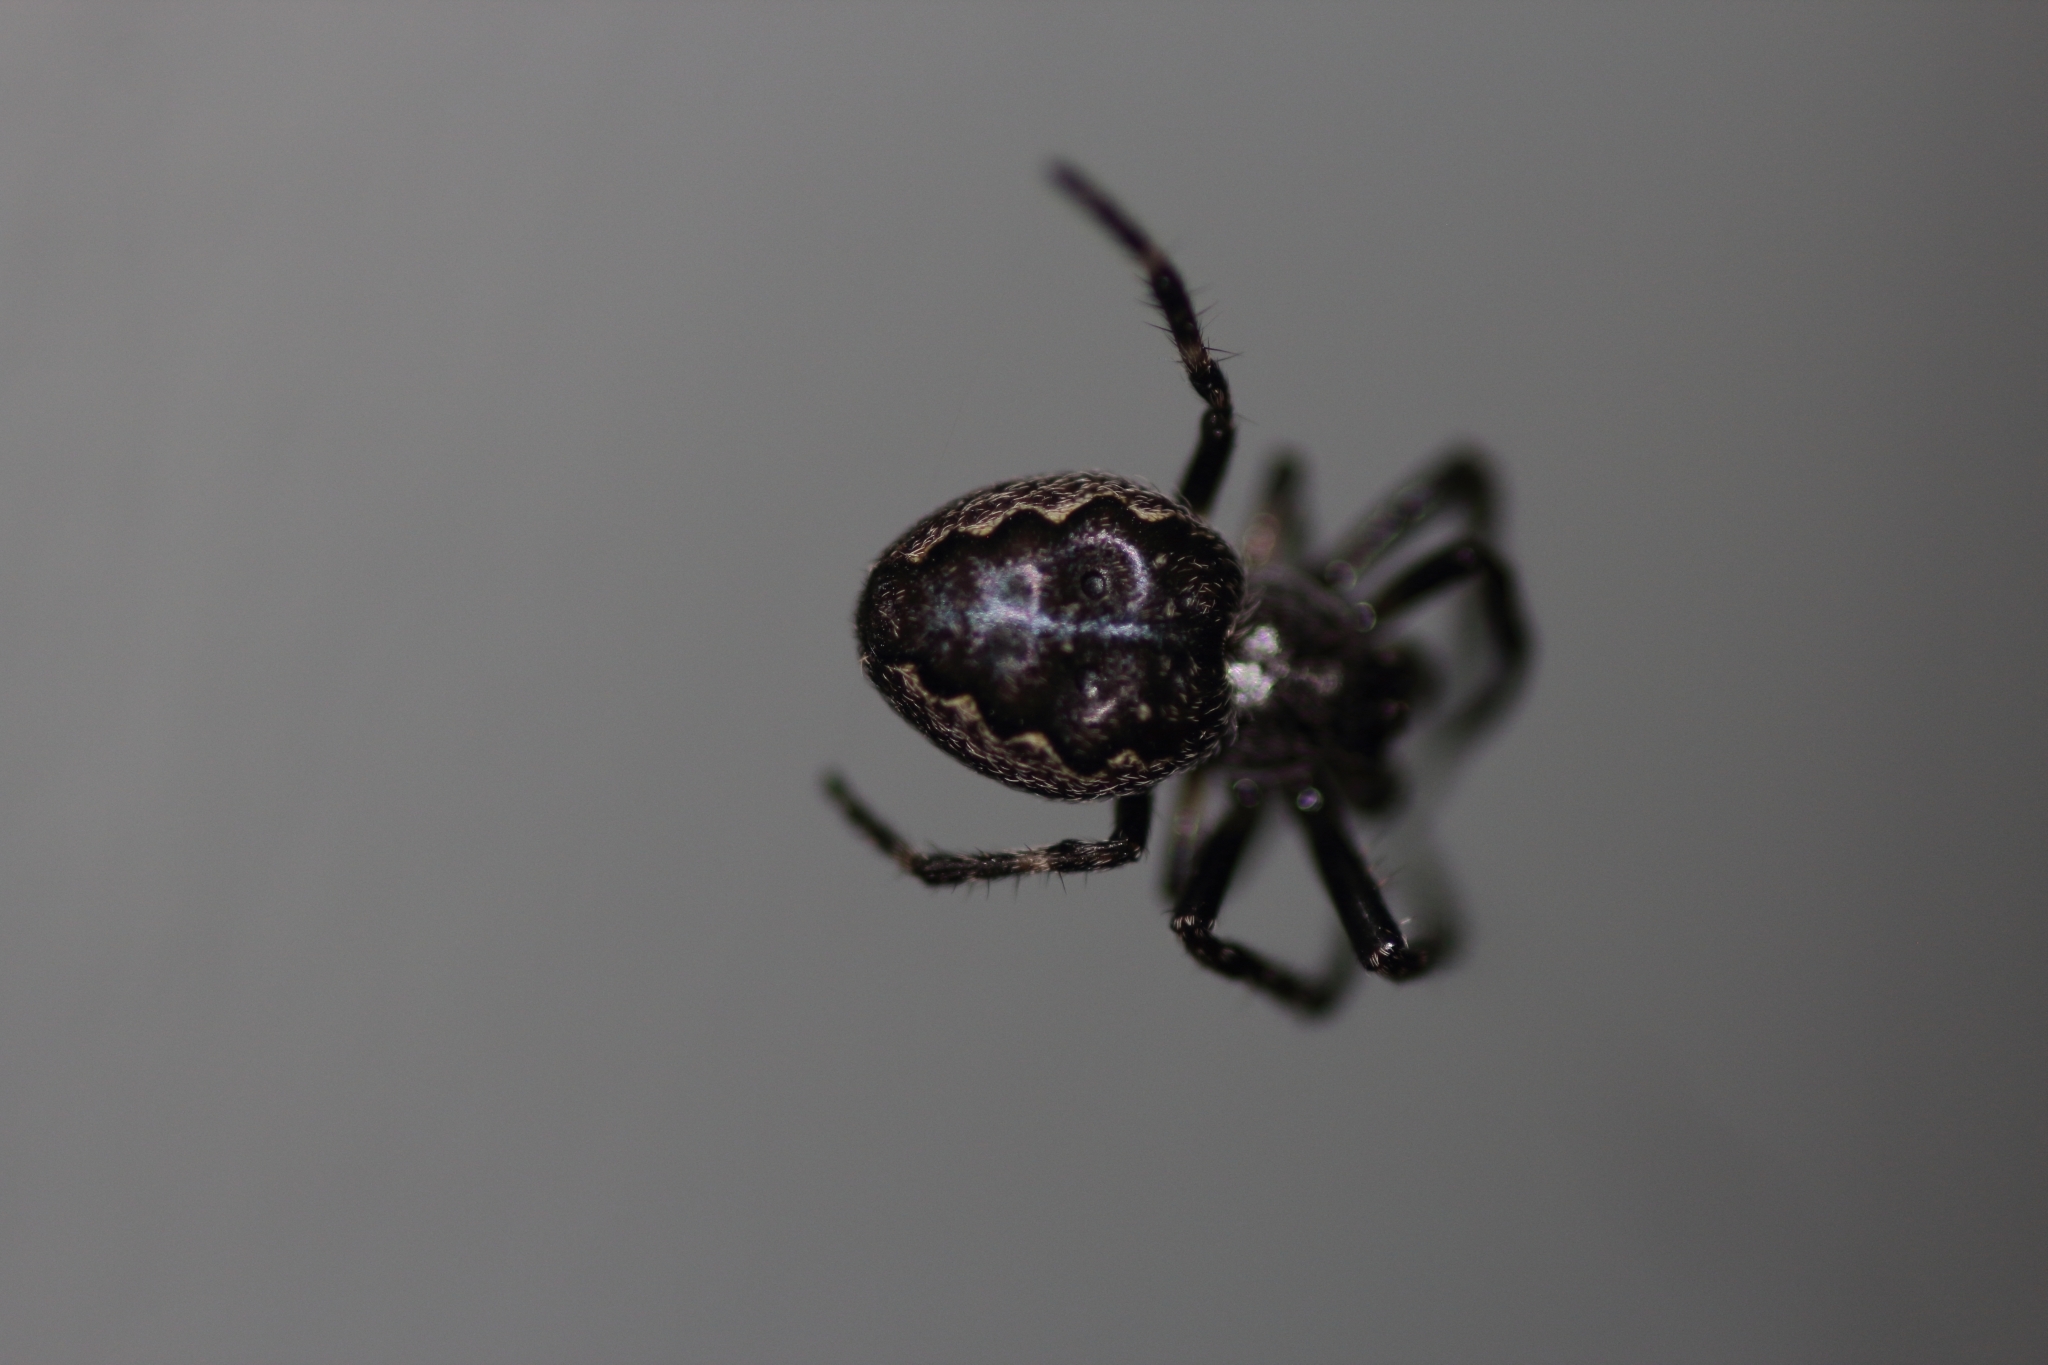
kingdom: Animalia
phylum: Arthropoda
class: Arachnida
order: Araneae
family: Araneidae
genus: Nuctenea
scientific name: Nuctenea umbratica
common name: Toad spider
